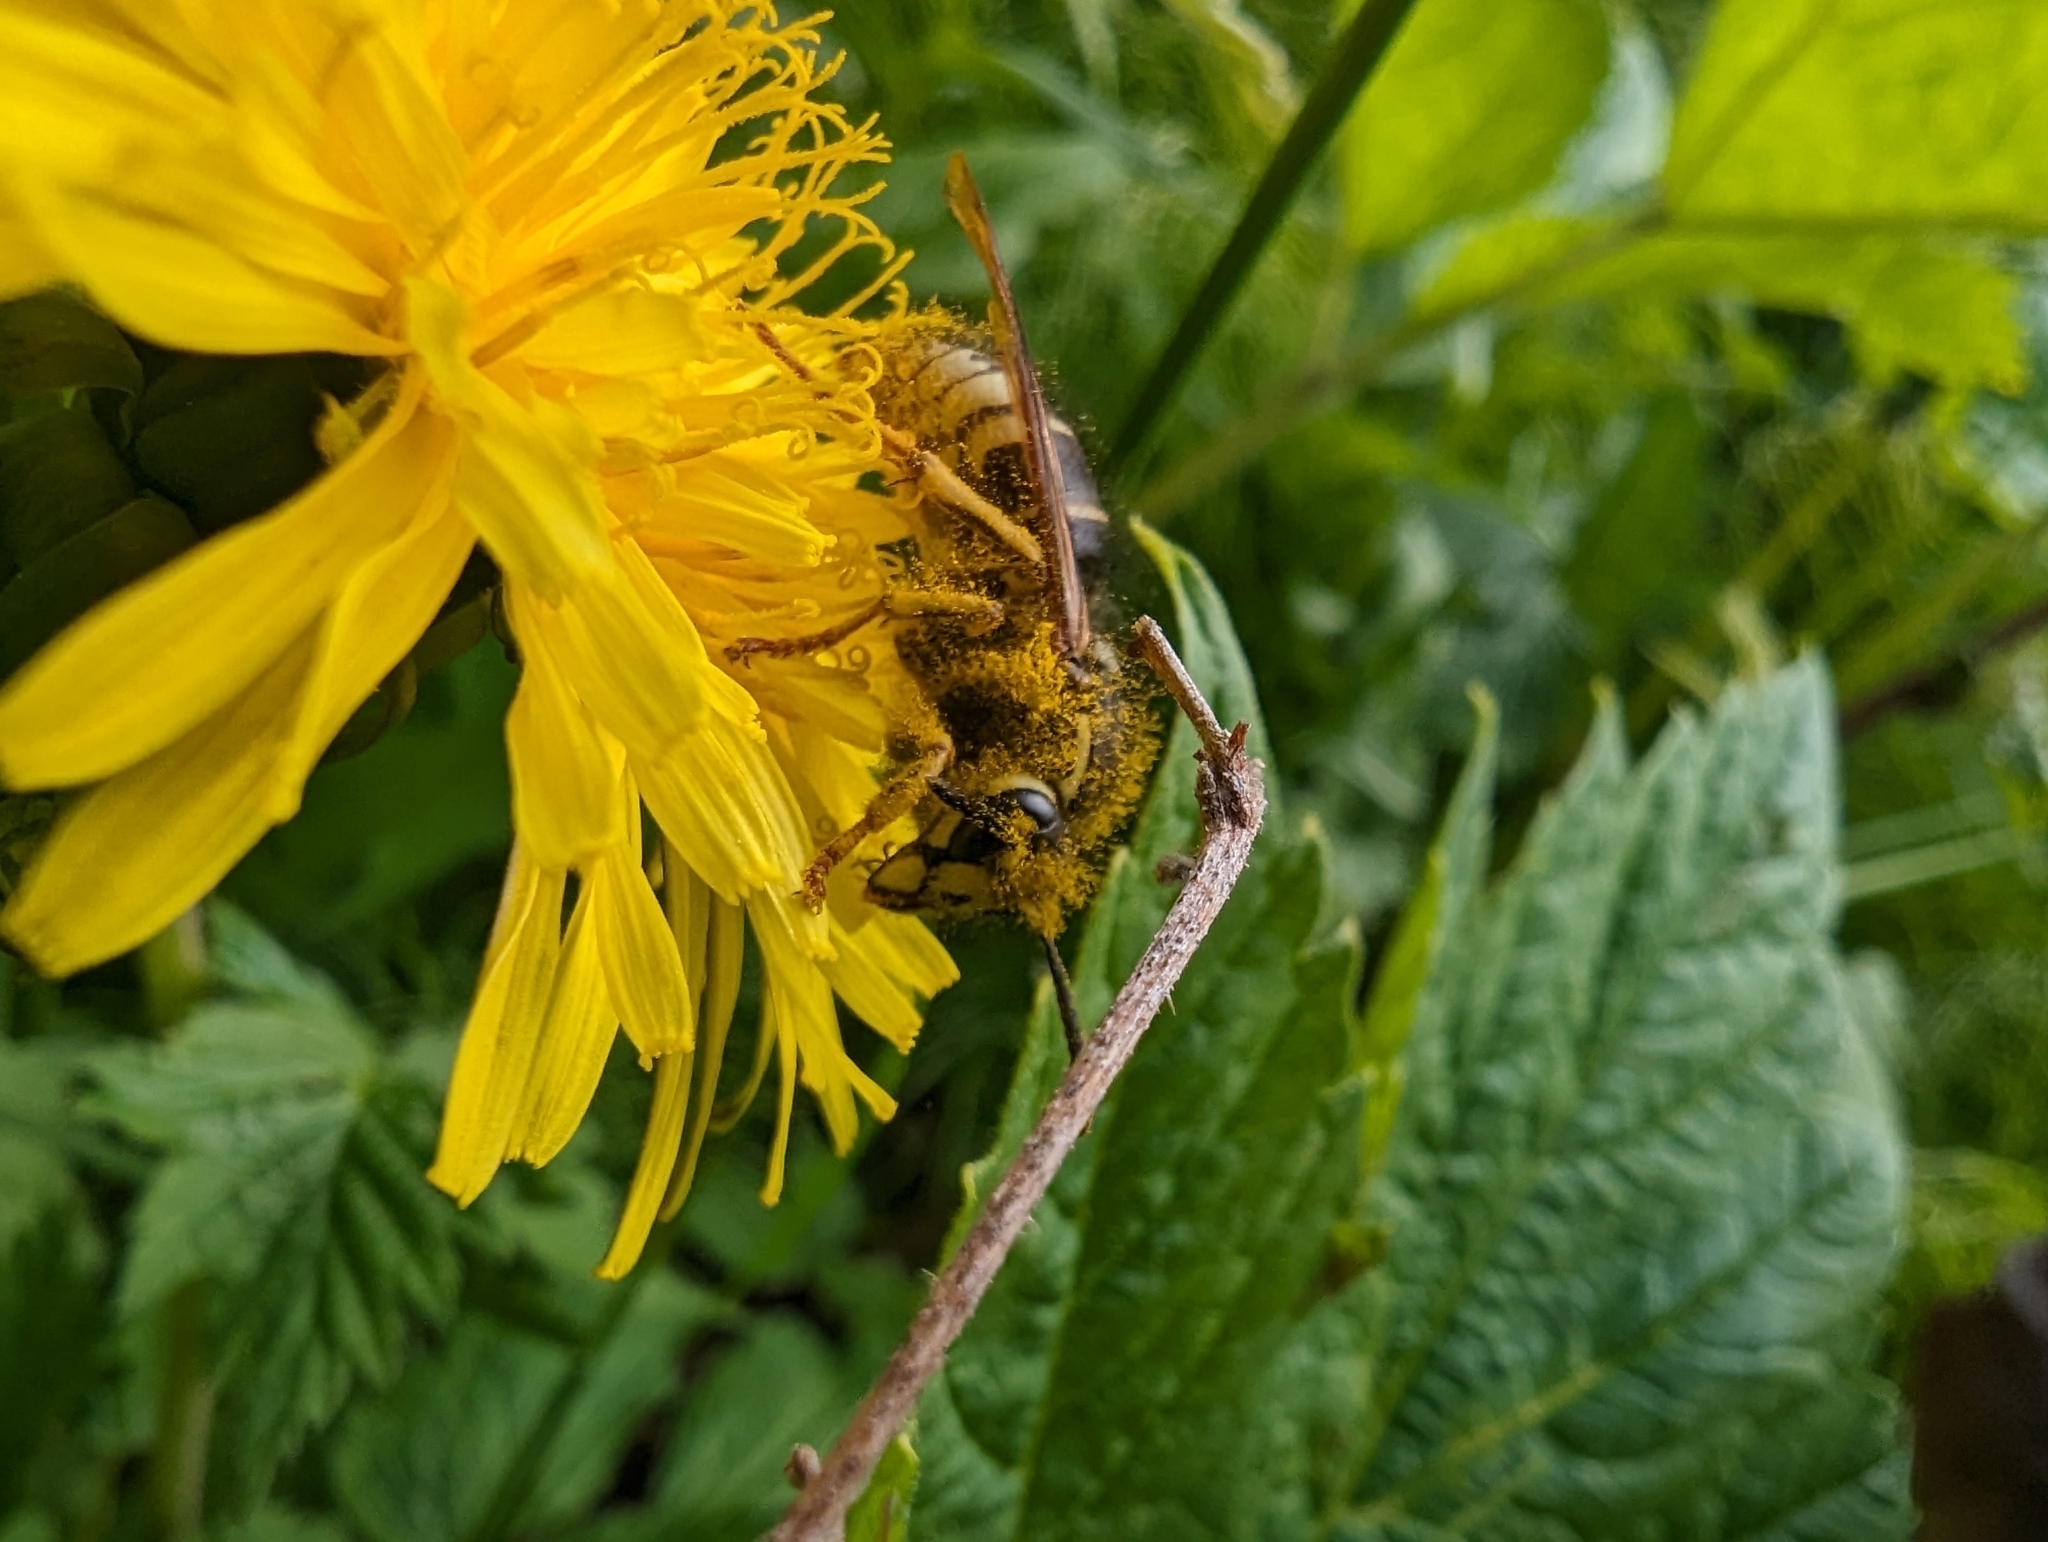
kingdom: Animalia
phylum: Arthropoda
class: Insecta
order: Hymenoptera
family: Vespidae
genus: Dolichovespula
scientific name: Dolichovespula adulterina
